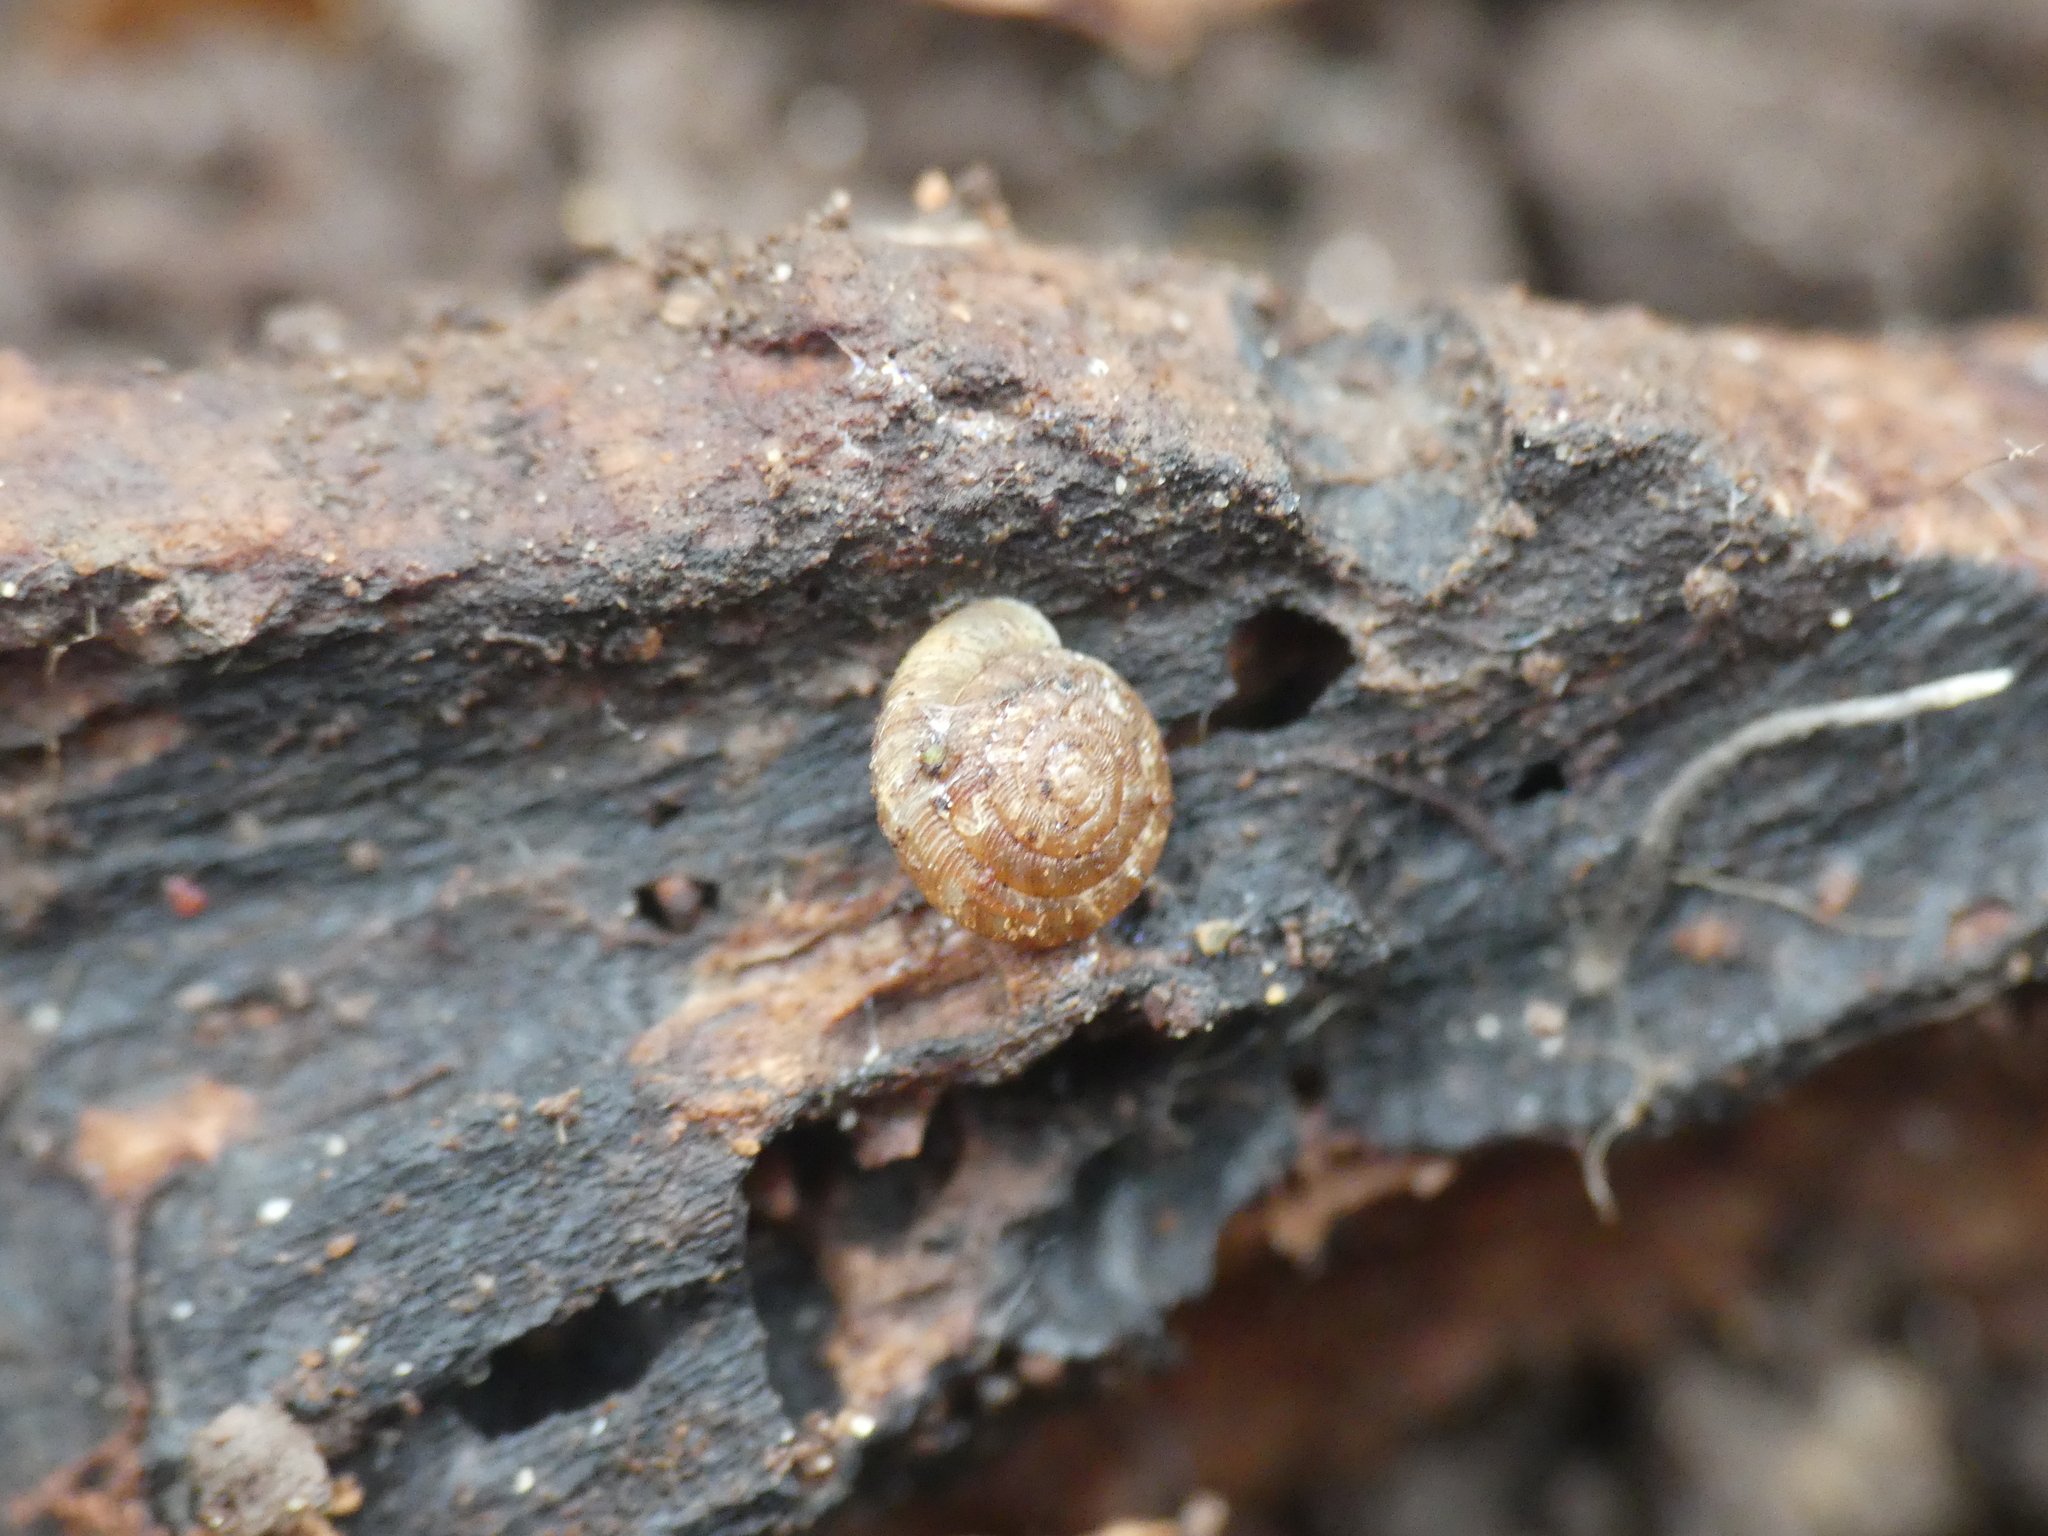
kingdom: Animalia
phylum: Mollusca
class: Gastropoda
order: Stylommatophora
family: Discidae
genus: Discus
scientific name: Discus rotundatus
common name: Rounded snail
